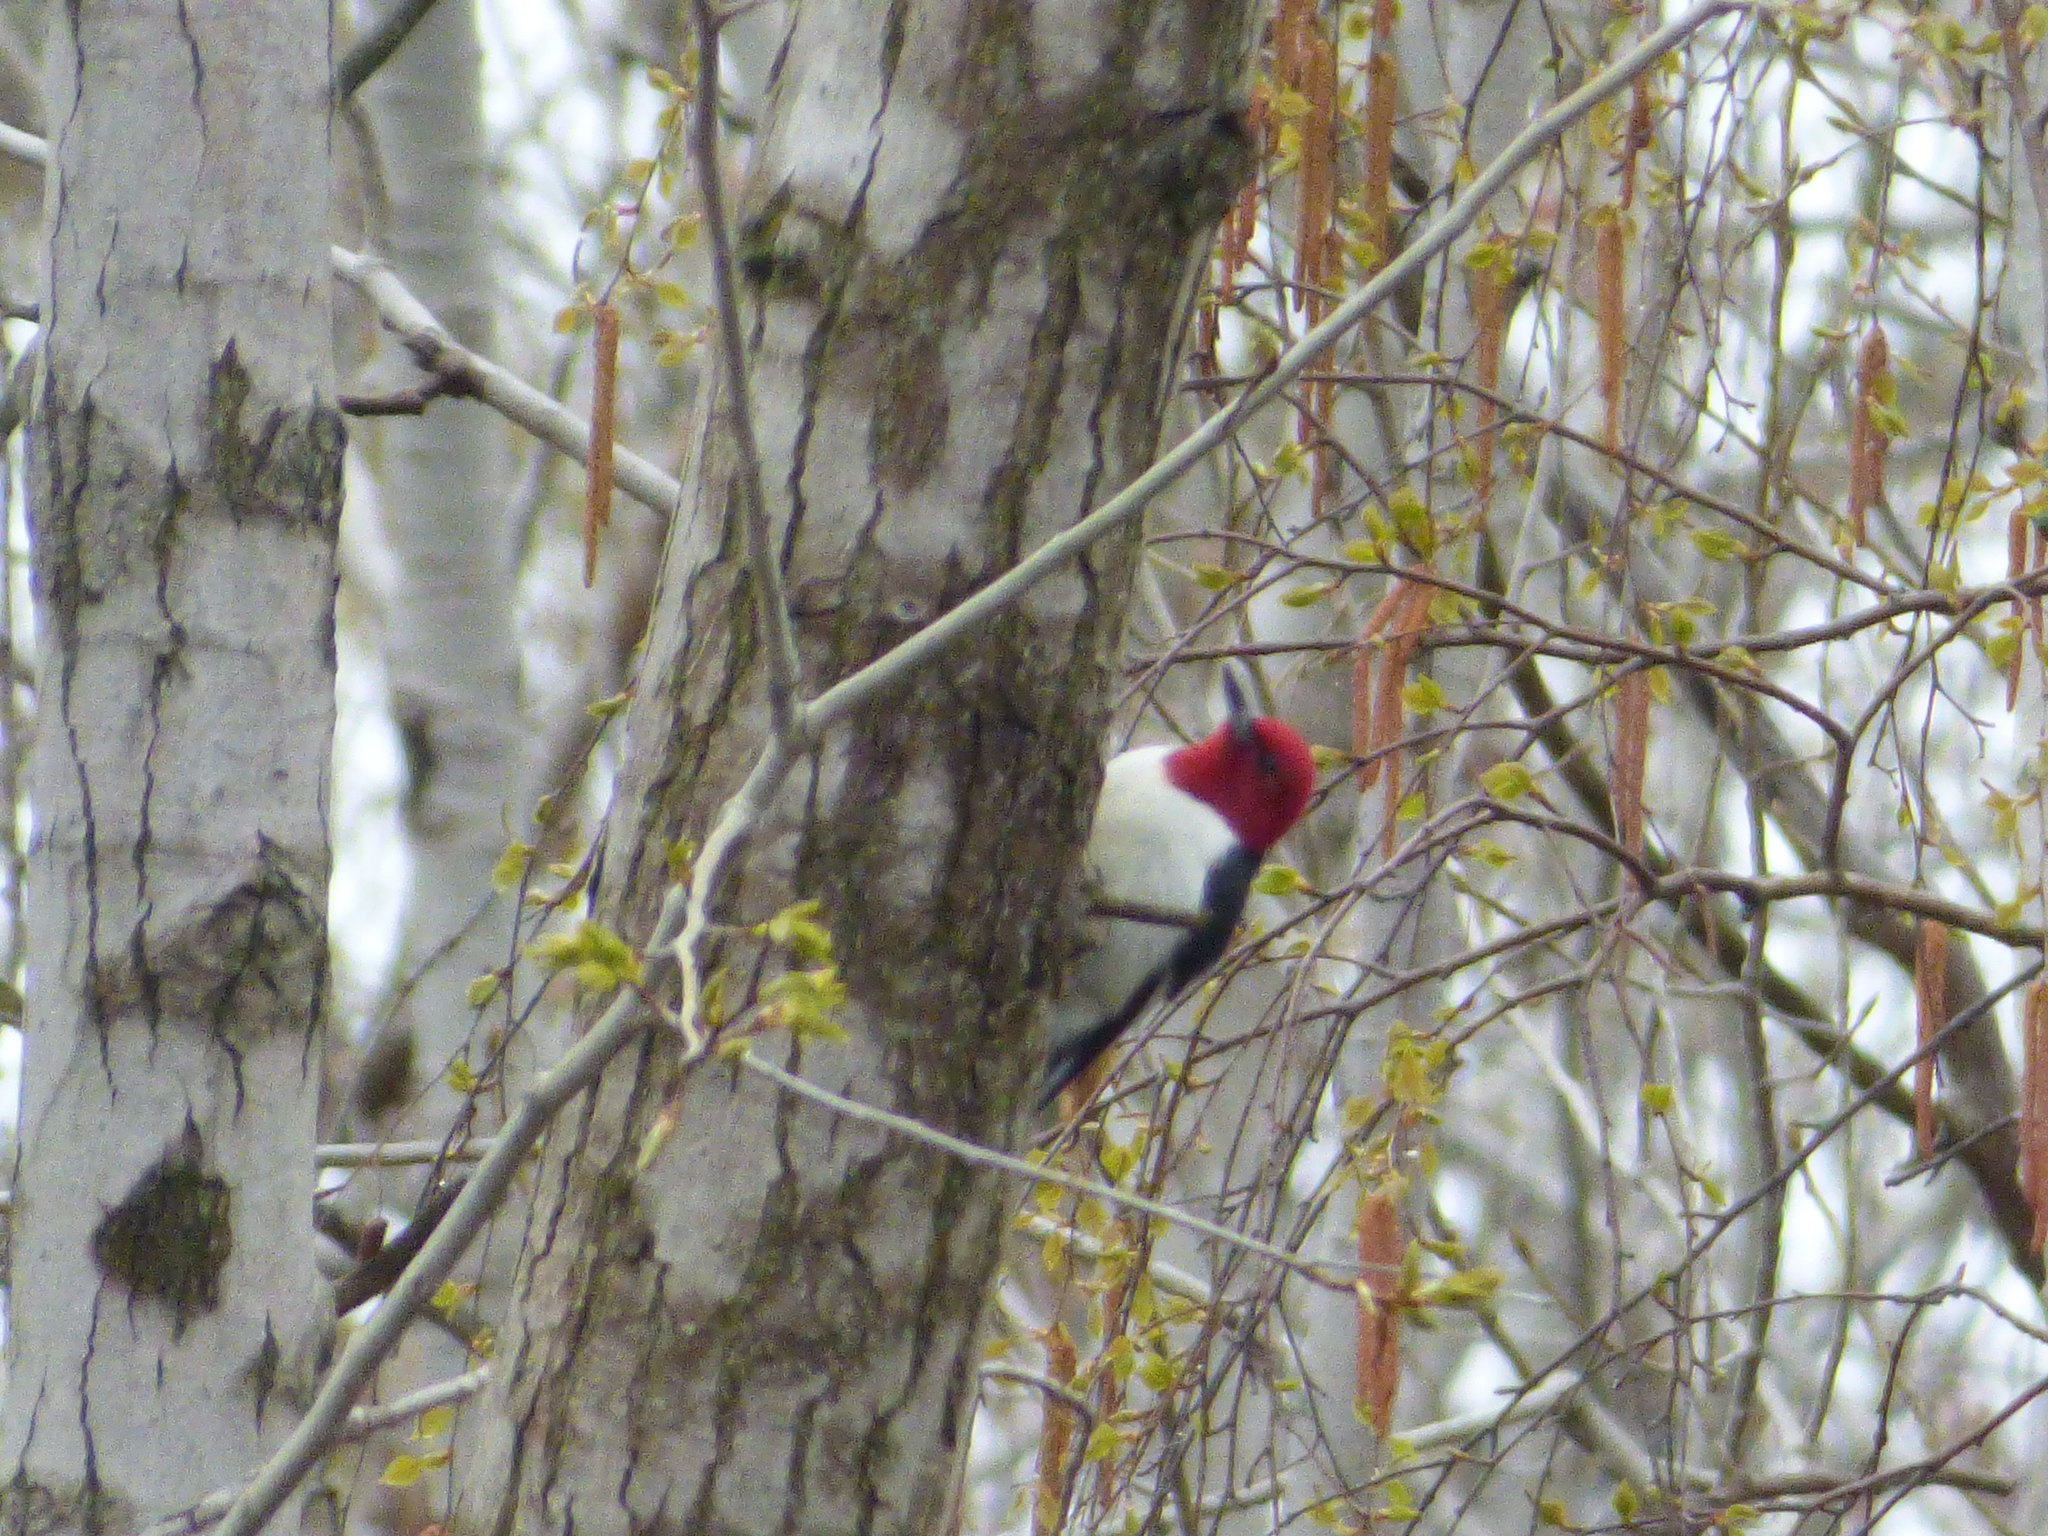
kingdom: Animalia
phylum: Chordata
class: Aves
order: Piciformes
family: Picidae
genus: Melanerpes
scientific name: Melanerpes erythrocephalus
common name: Red-headed woodpecker
